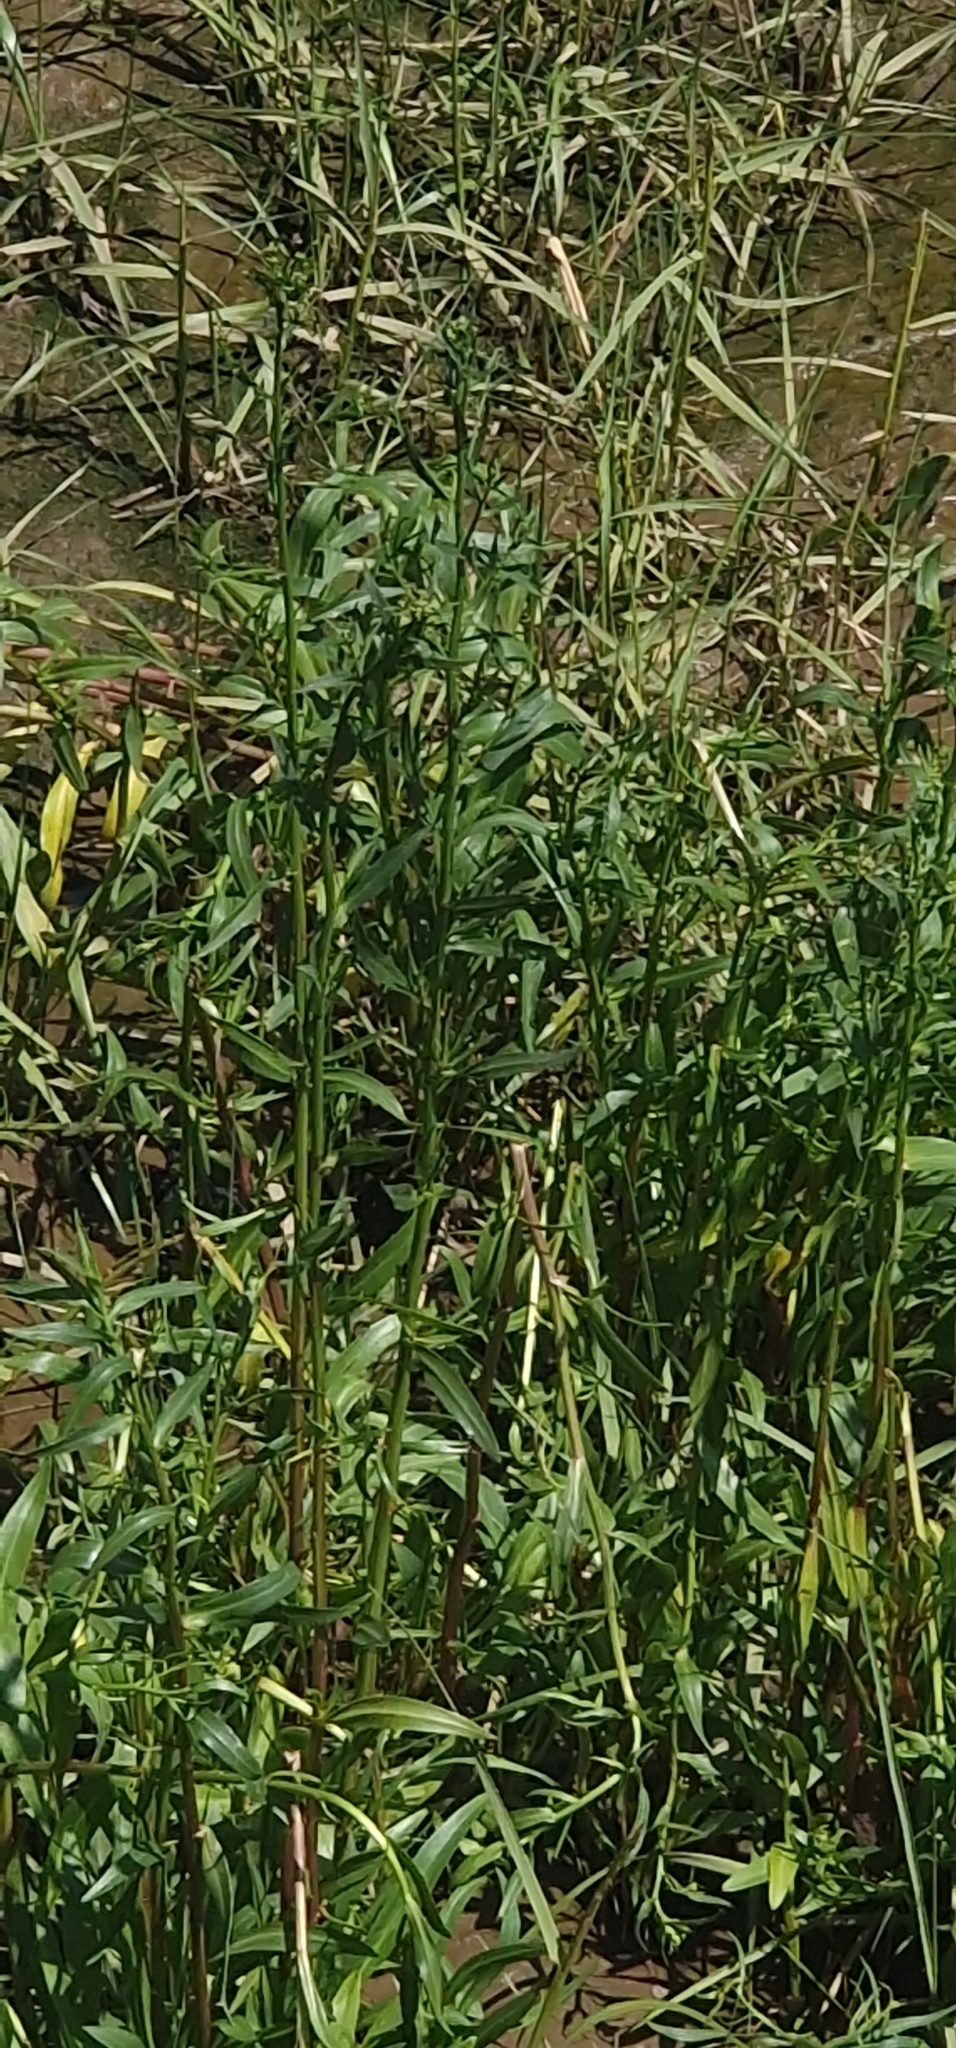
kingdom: Plantae
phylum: Tracheophyta
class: Magnoliopsida
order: Asterales
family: Asteraceae
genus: Tripolium
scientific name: Tripolium pannonicum
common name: Sea aster
